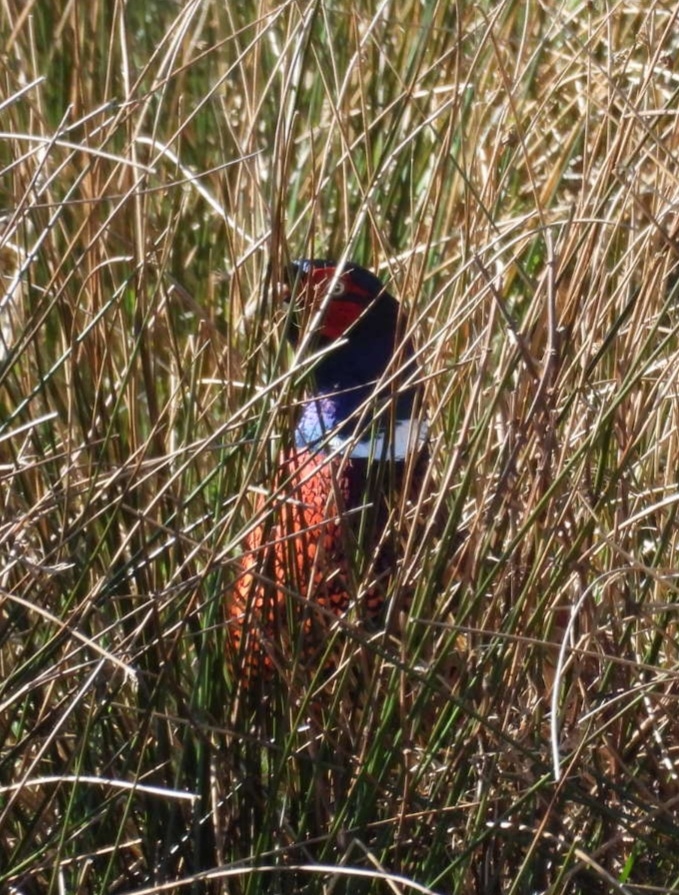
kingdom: Animalia
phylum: Chordata
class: Aves
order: Galliformes
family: Phasianidae
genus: Phasianus
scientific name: Phasianus colchicus
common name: Common pheasant
